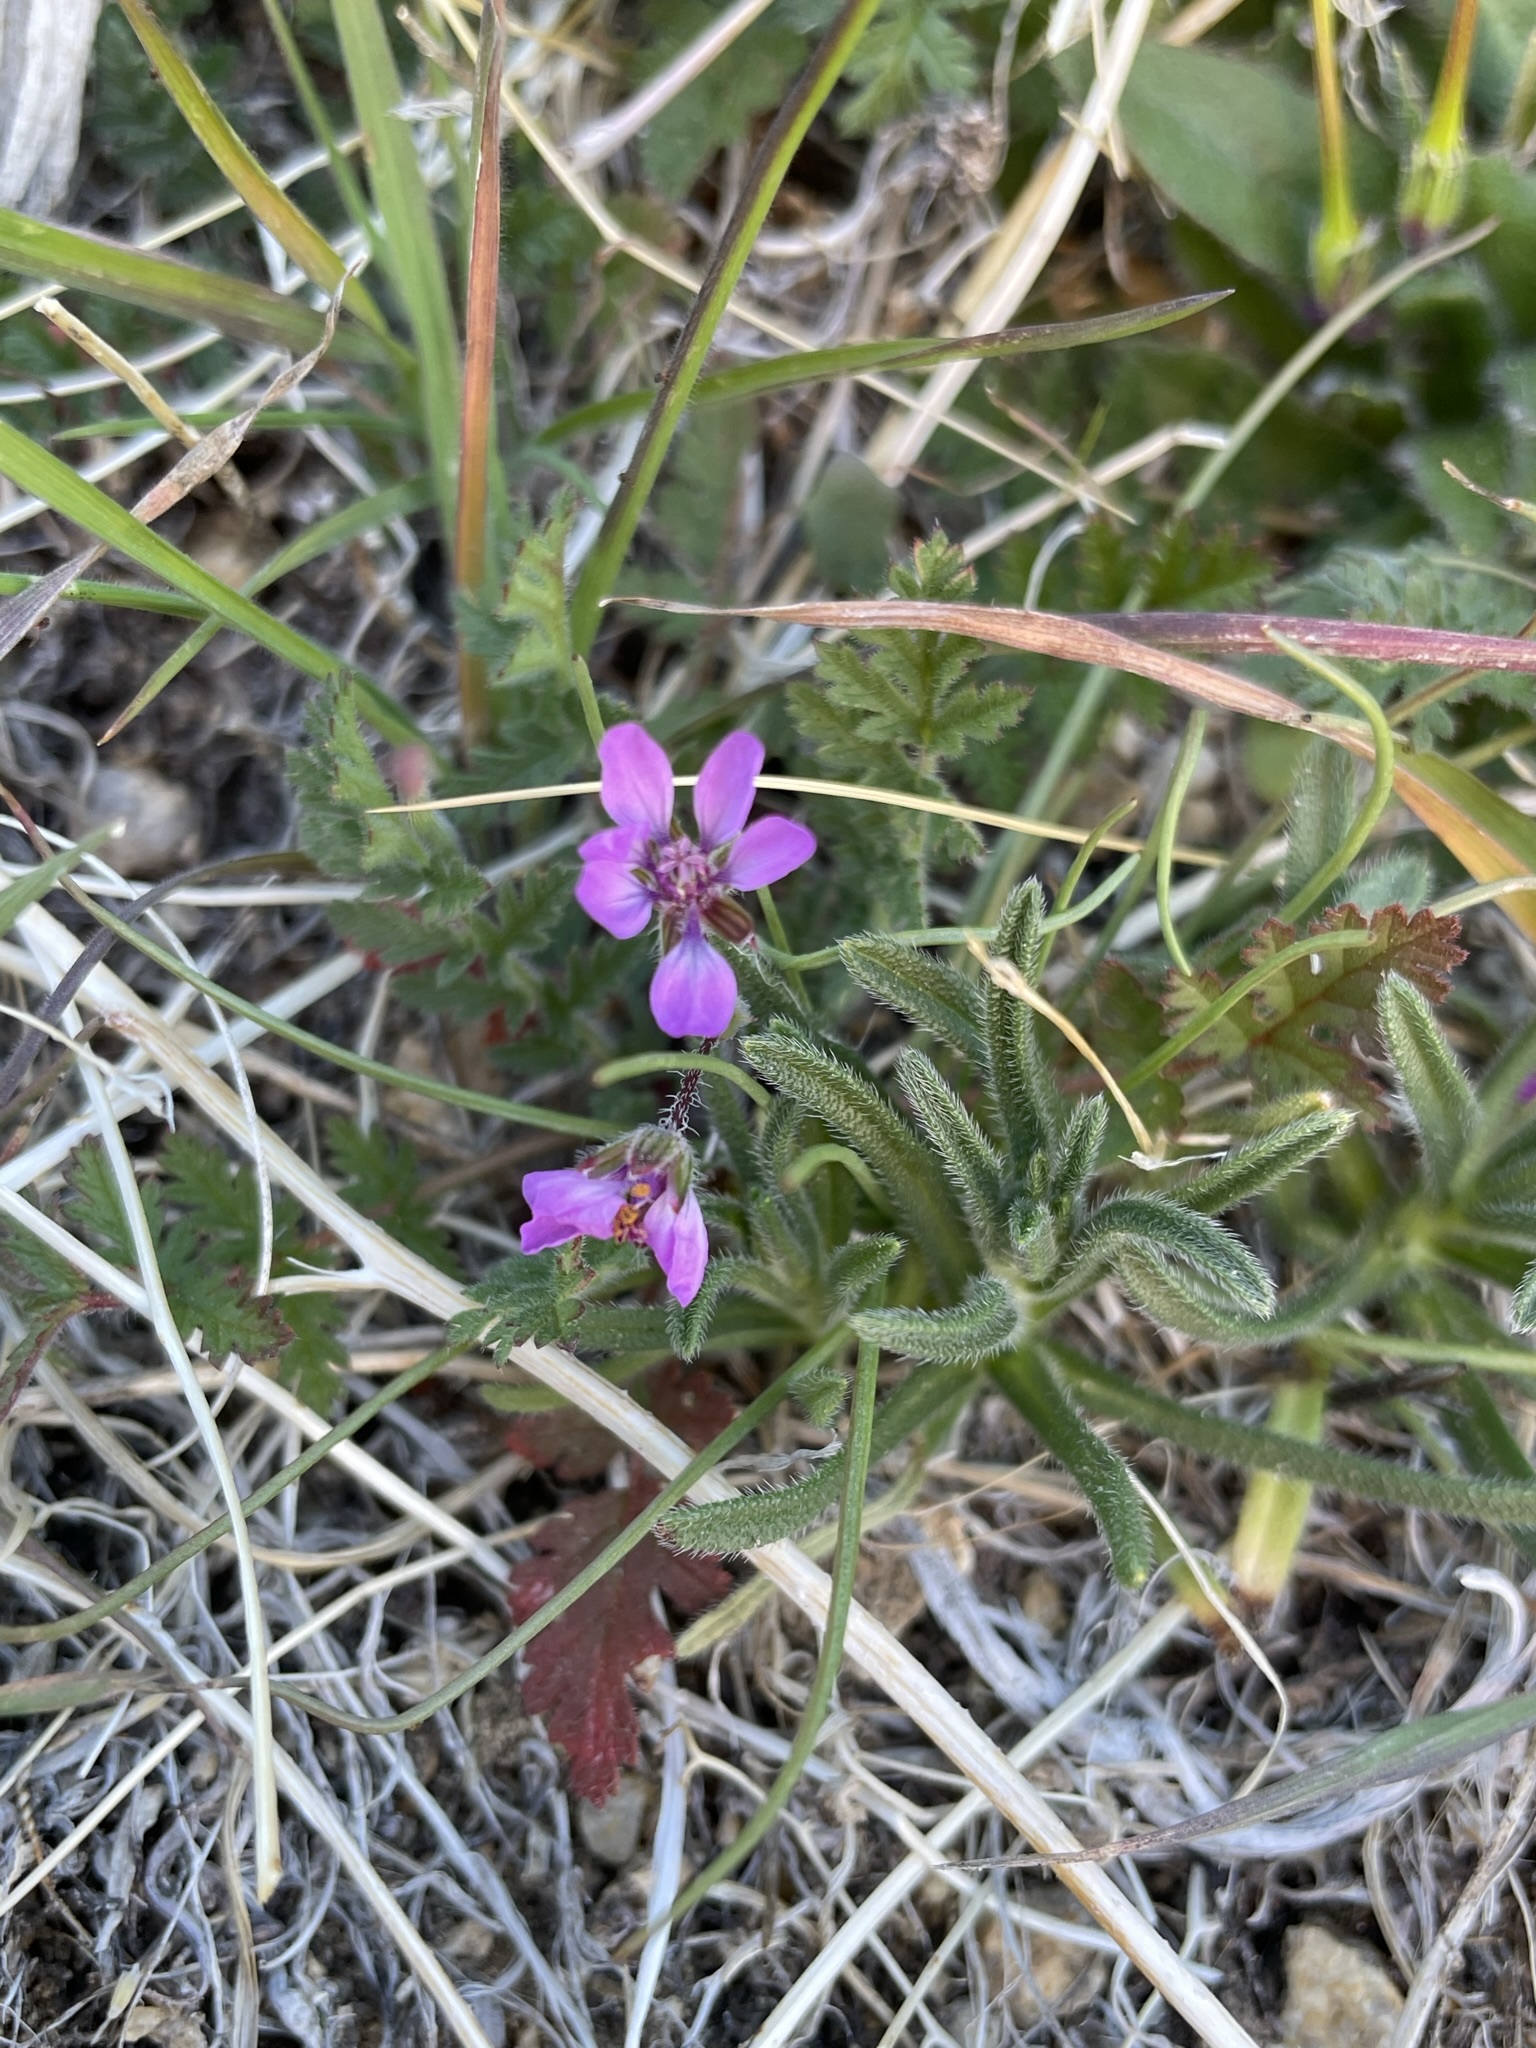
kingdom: Plantae
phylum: Tracheophyta
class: Magnoliopsida
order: Geraniales
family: Geraniaceae
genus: Erodium
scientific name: Erodium cicutarium
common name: Common stork's-bill
